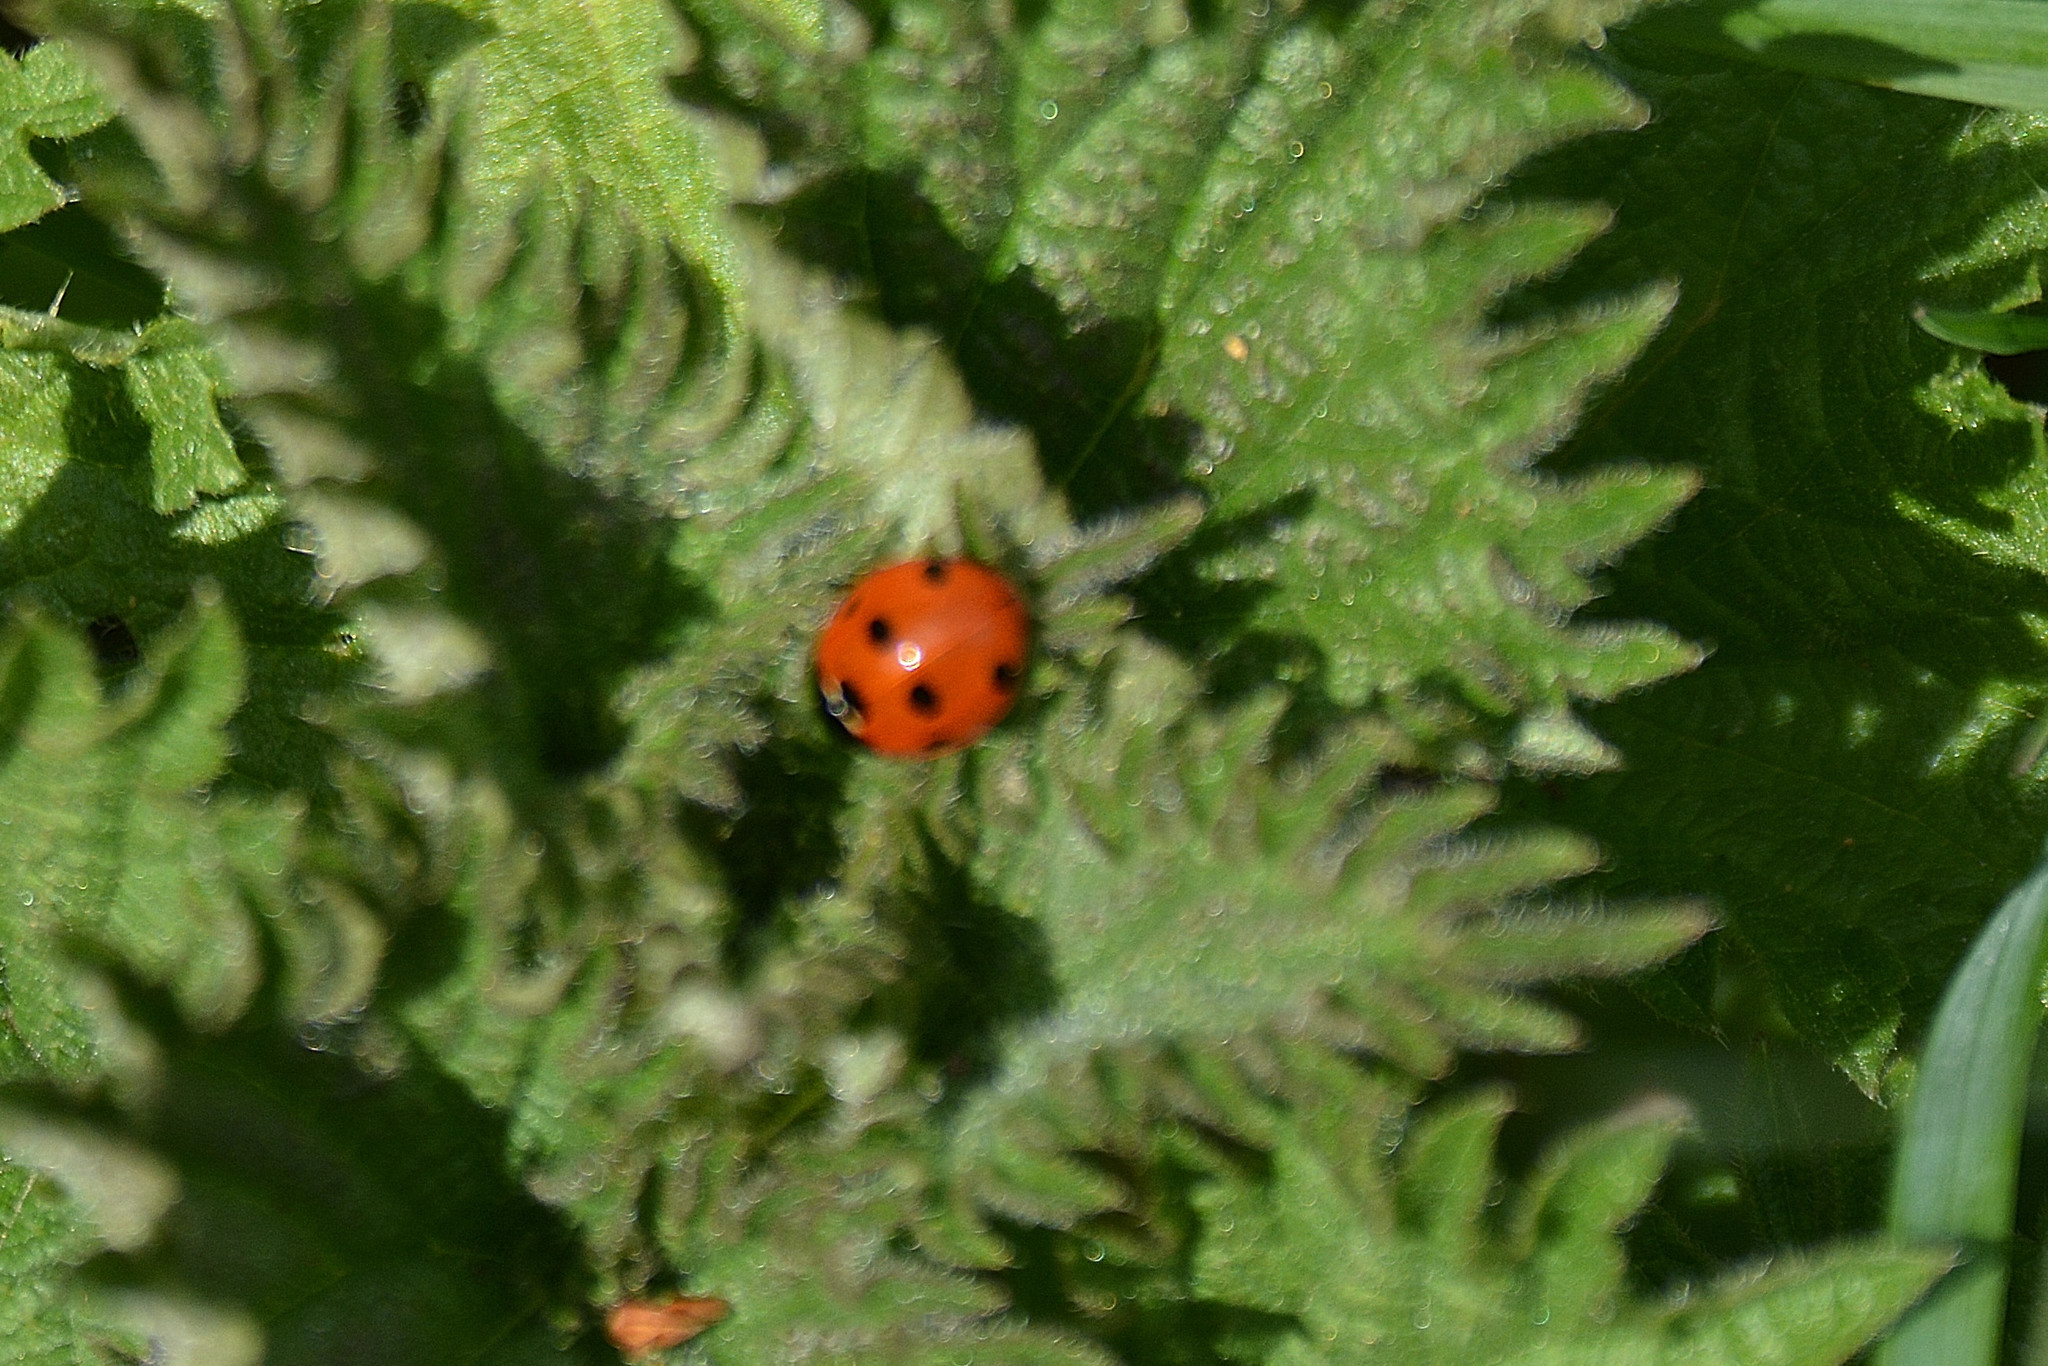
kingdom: Animalia
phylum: Arthropoda
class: Insecta
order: Coleoptera
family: Coccinellidae
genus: Coccinella
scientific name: Coccinella septempunctata
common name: Sevenspotted lady beetle
